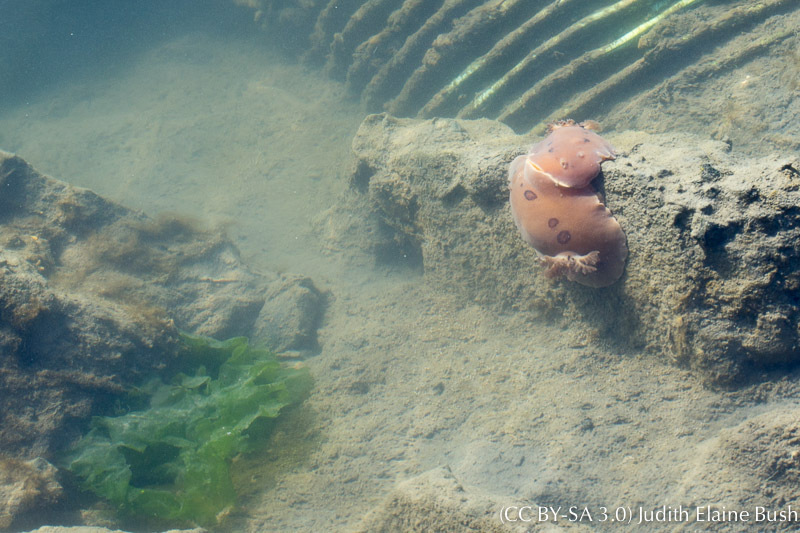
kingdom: Animalia
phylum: Mollusca
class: Gastropoda
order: Nudibranchia
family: Discodorididae
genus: Diaulula
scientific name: Diaulula sandiegensis
